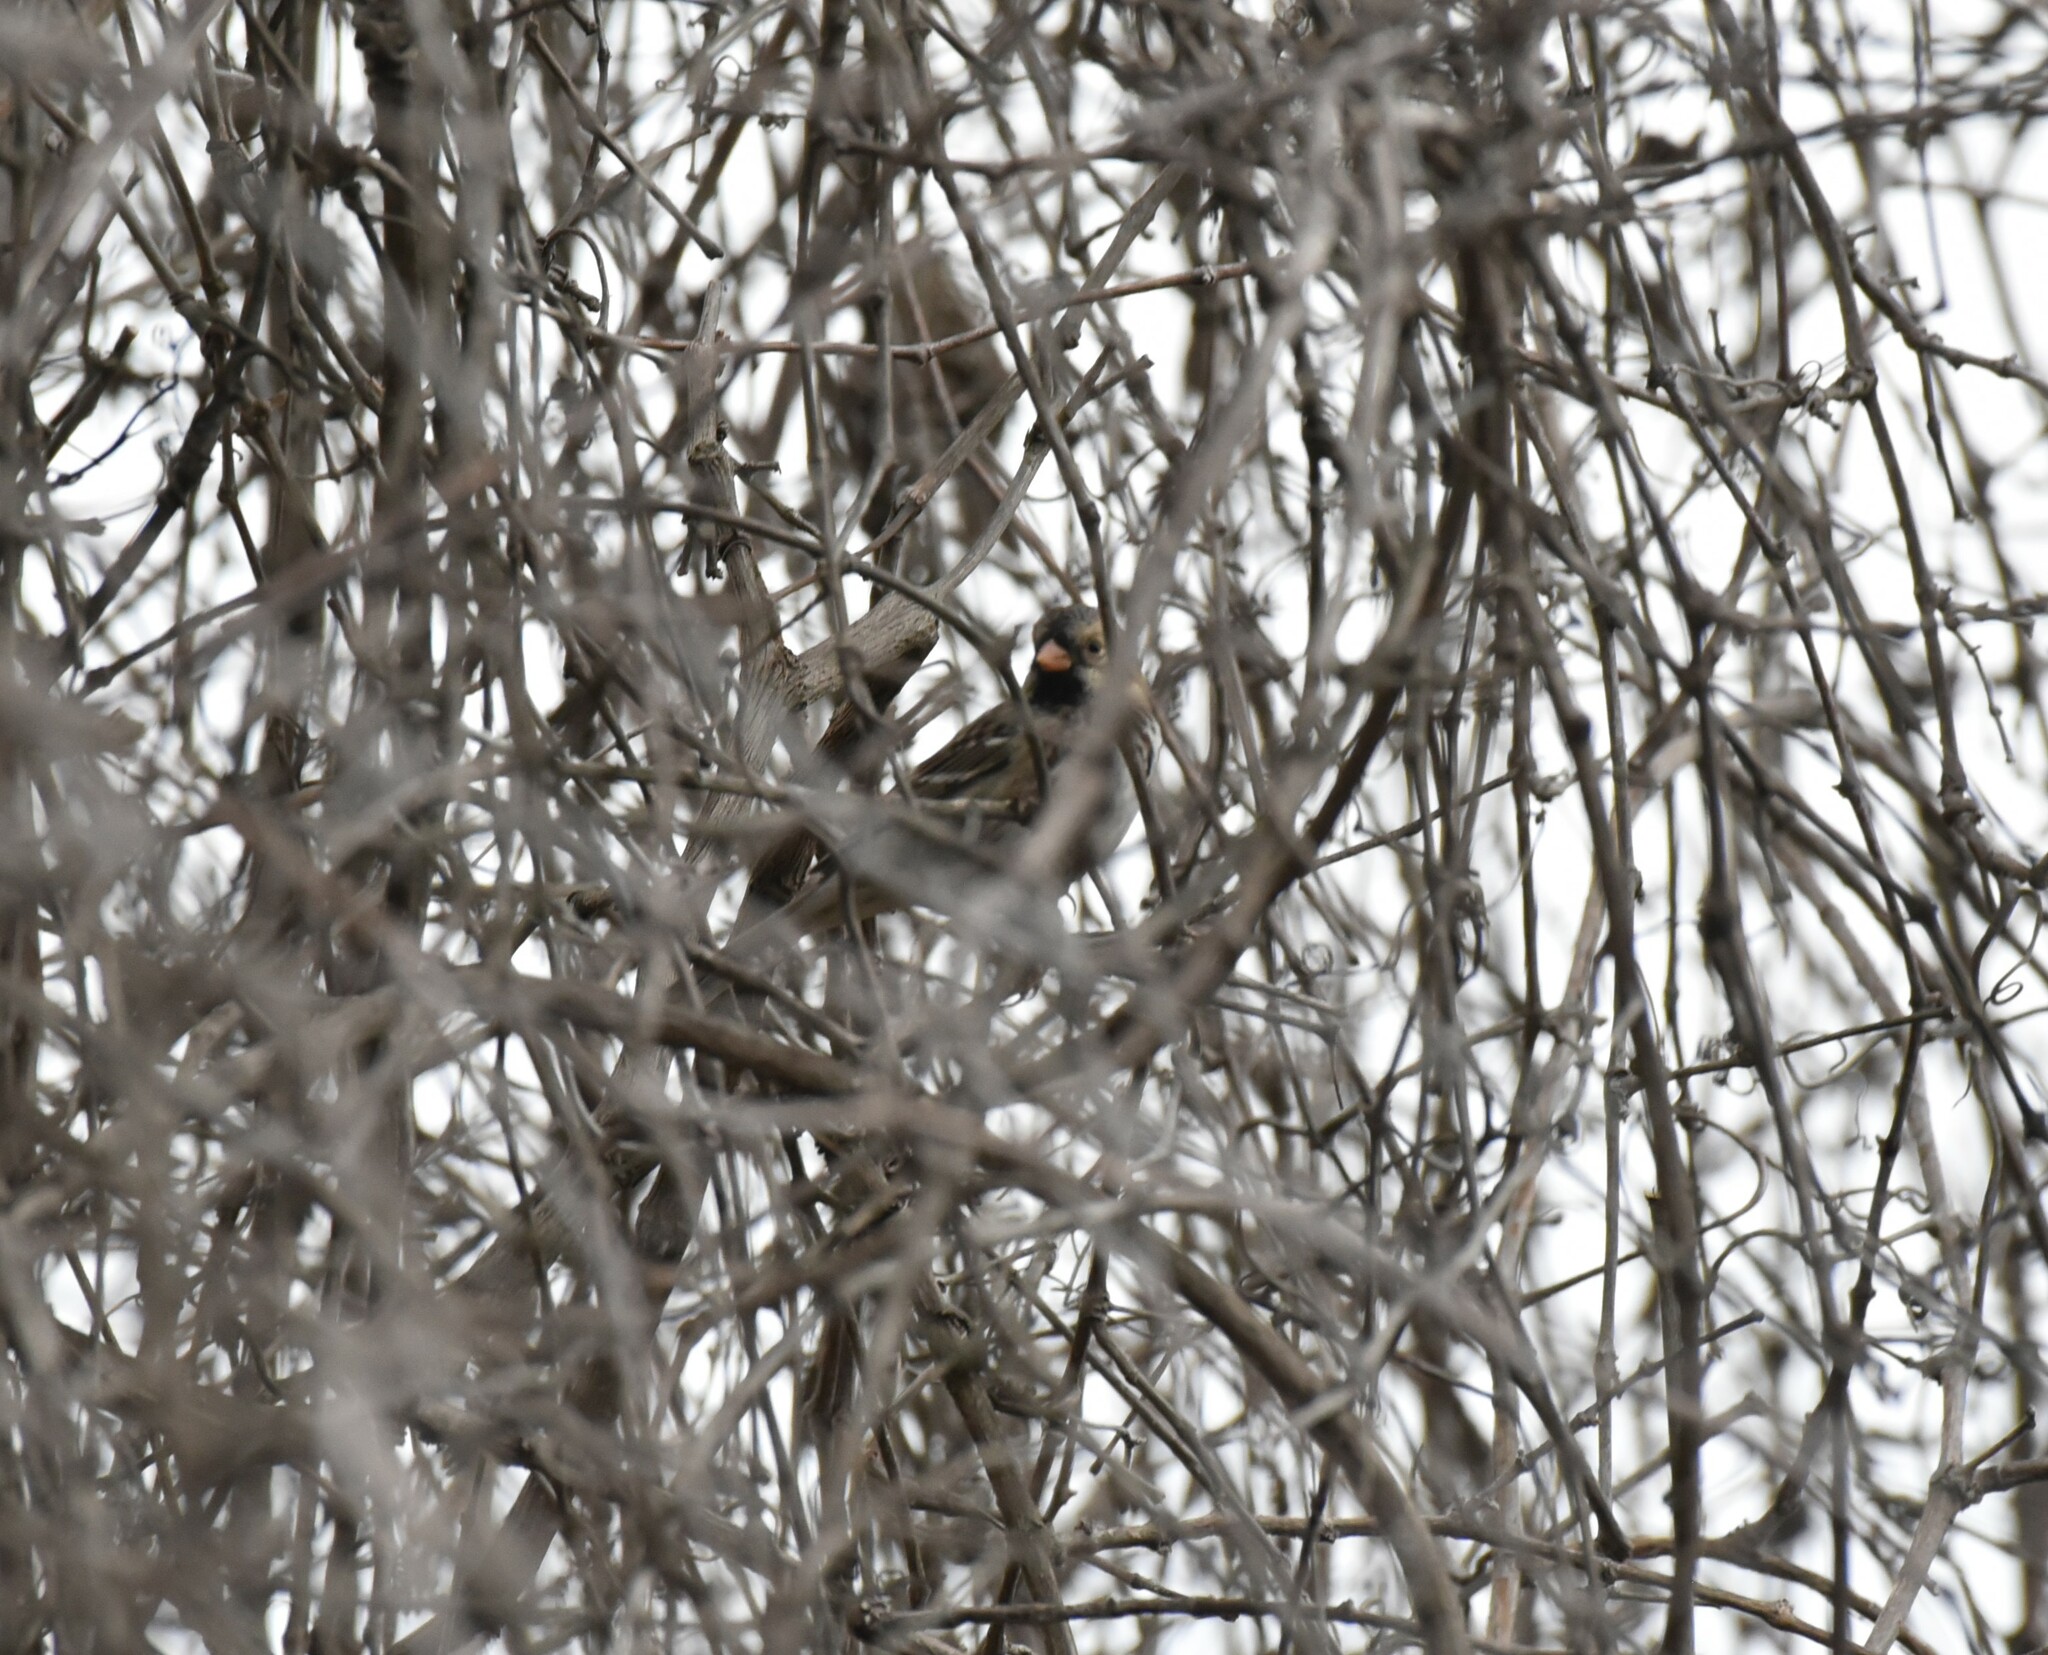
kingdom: Animalia
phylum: Chordata
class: Aves
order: Passeriformes
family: Passerellidae
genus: Zonotrichia
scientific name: Zonotrichia querula
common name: Harris's sparrow
